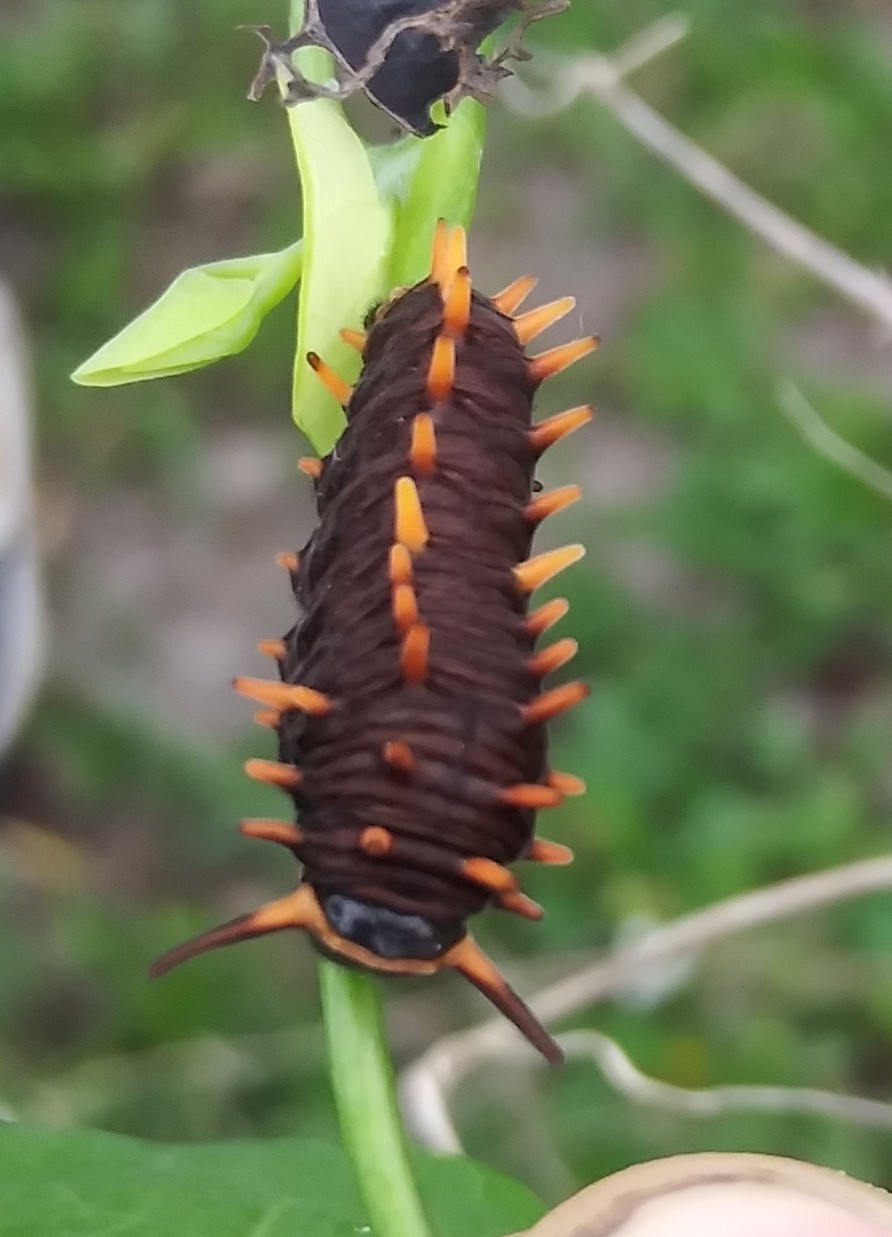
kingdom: Animalia
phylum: Arthropoda
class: Insecta
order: Lepidoptera
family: Papilionidae
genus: Battus
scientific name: Battus polydamas
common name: Polydamas swallowtail
